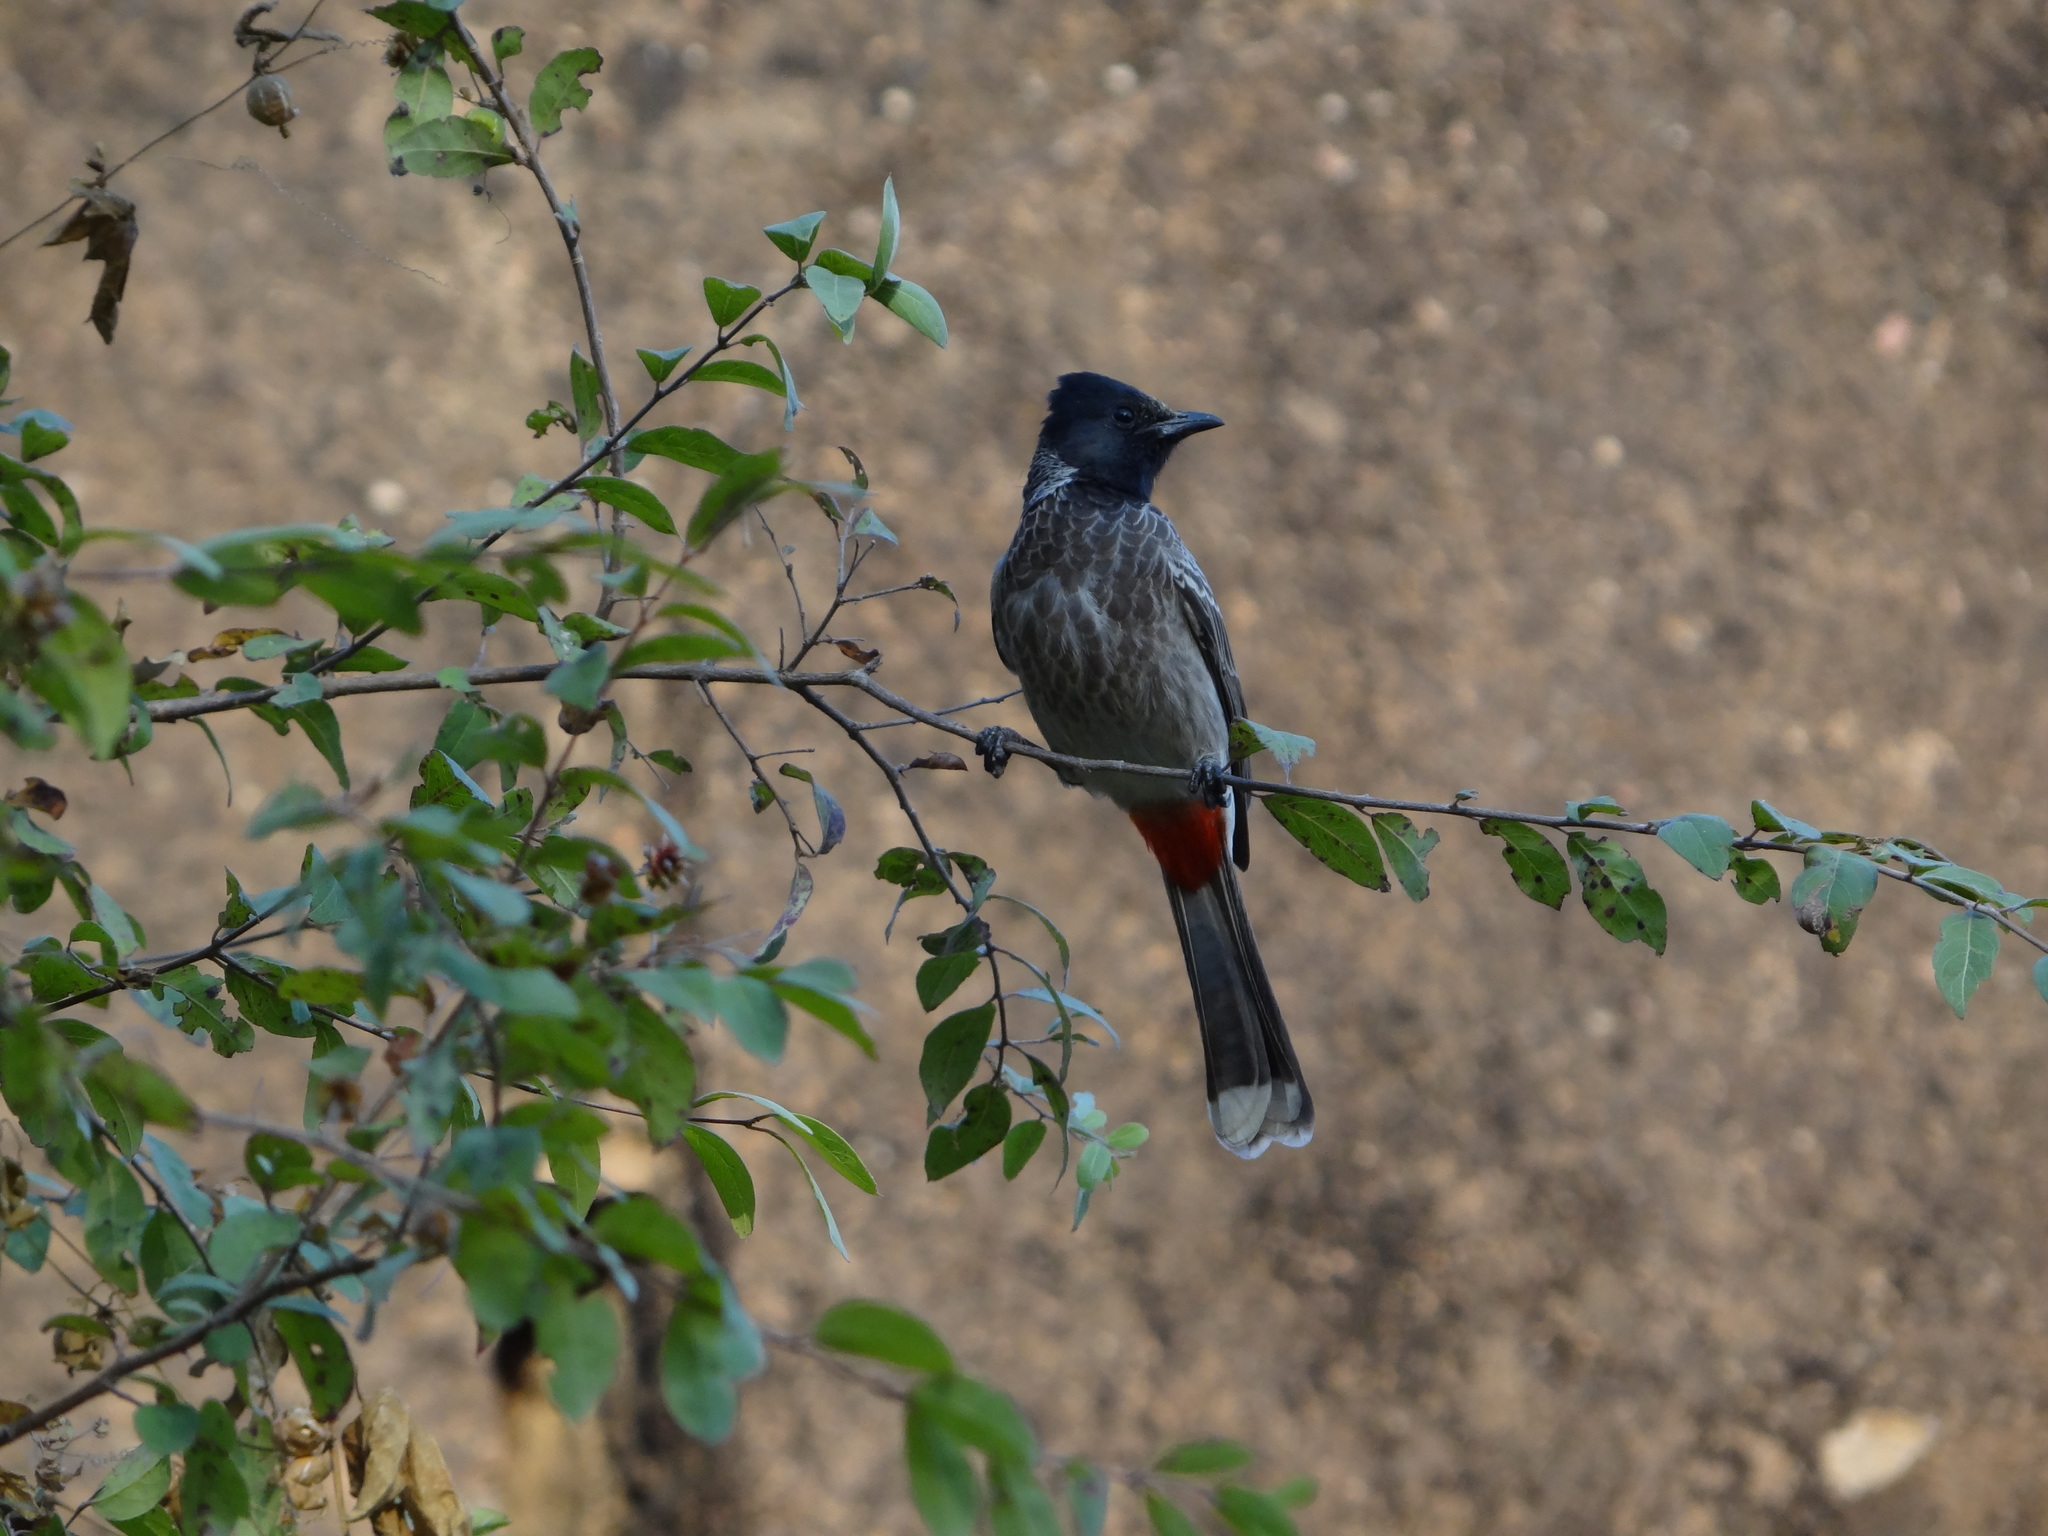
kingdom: Animalia
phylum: Chordata
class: Aves
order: Passeriformes
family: Pycnonotidae
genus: Pycnonotus
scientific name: Pycnonotus cafer
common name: Red-vented bulbul
